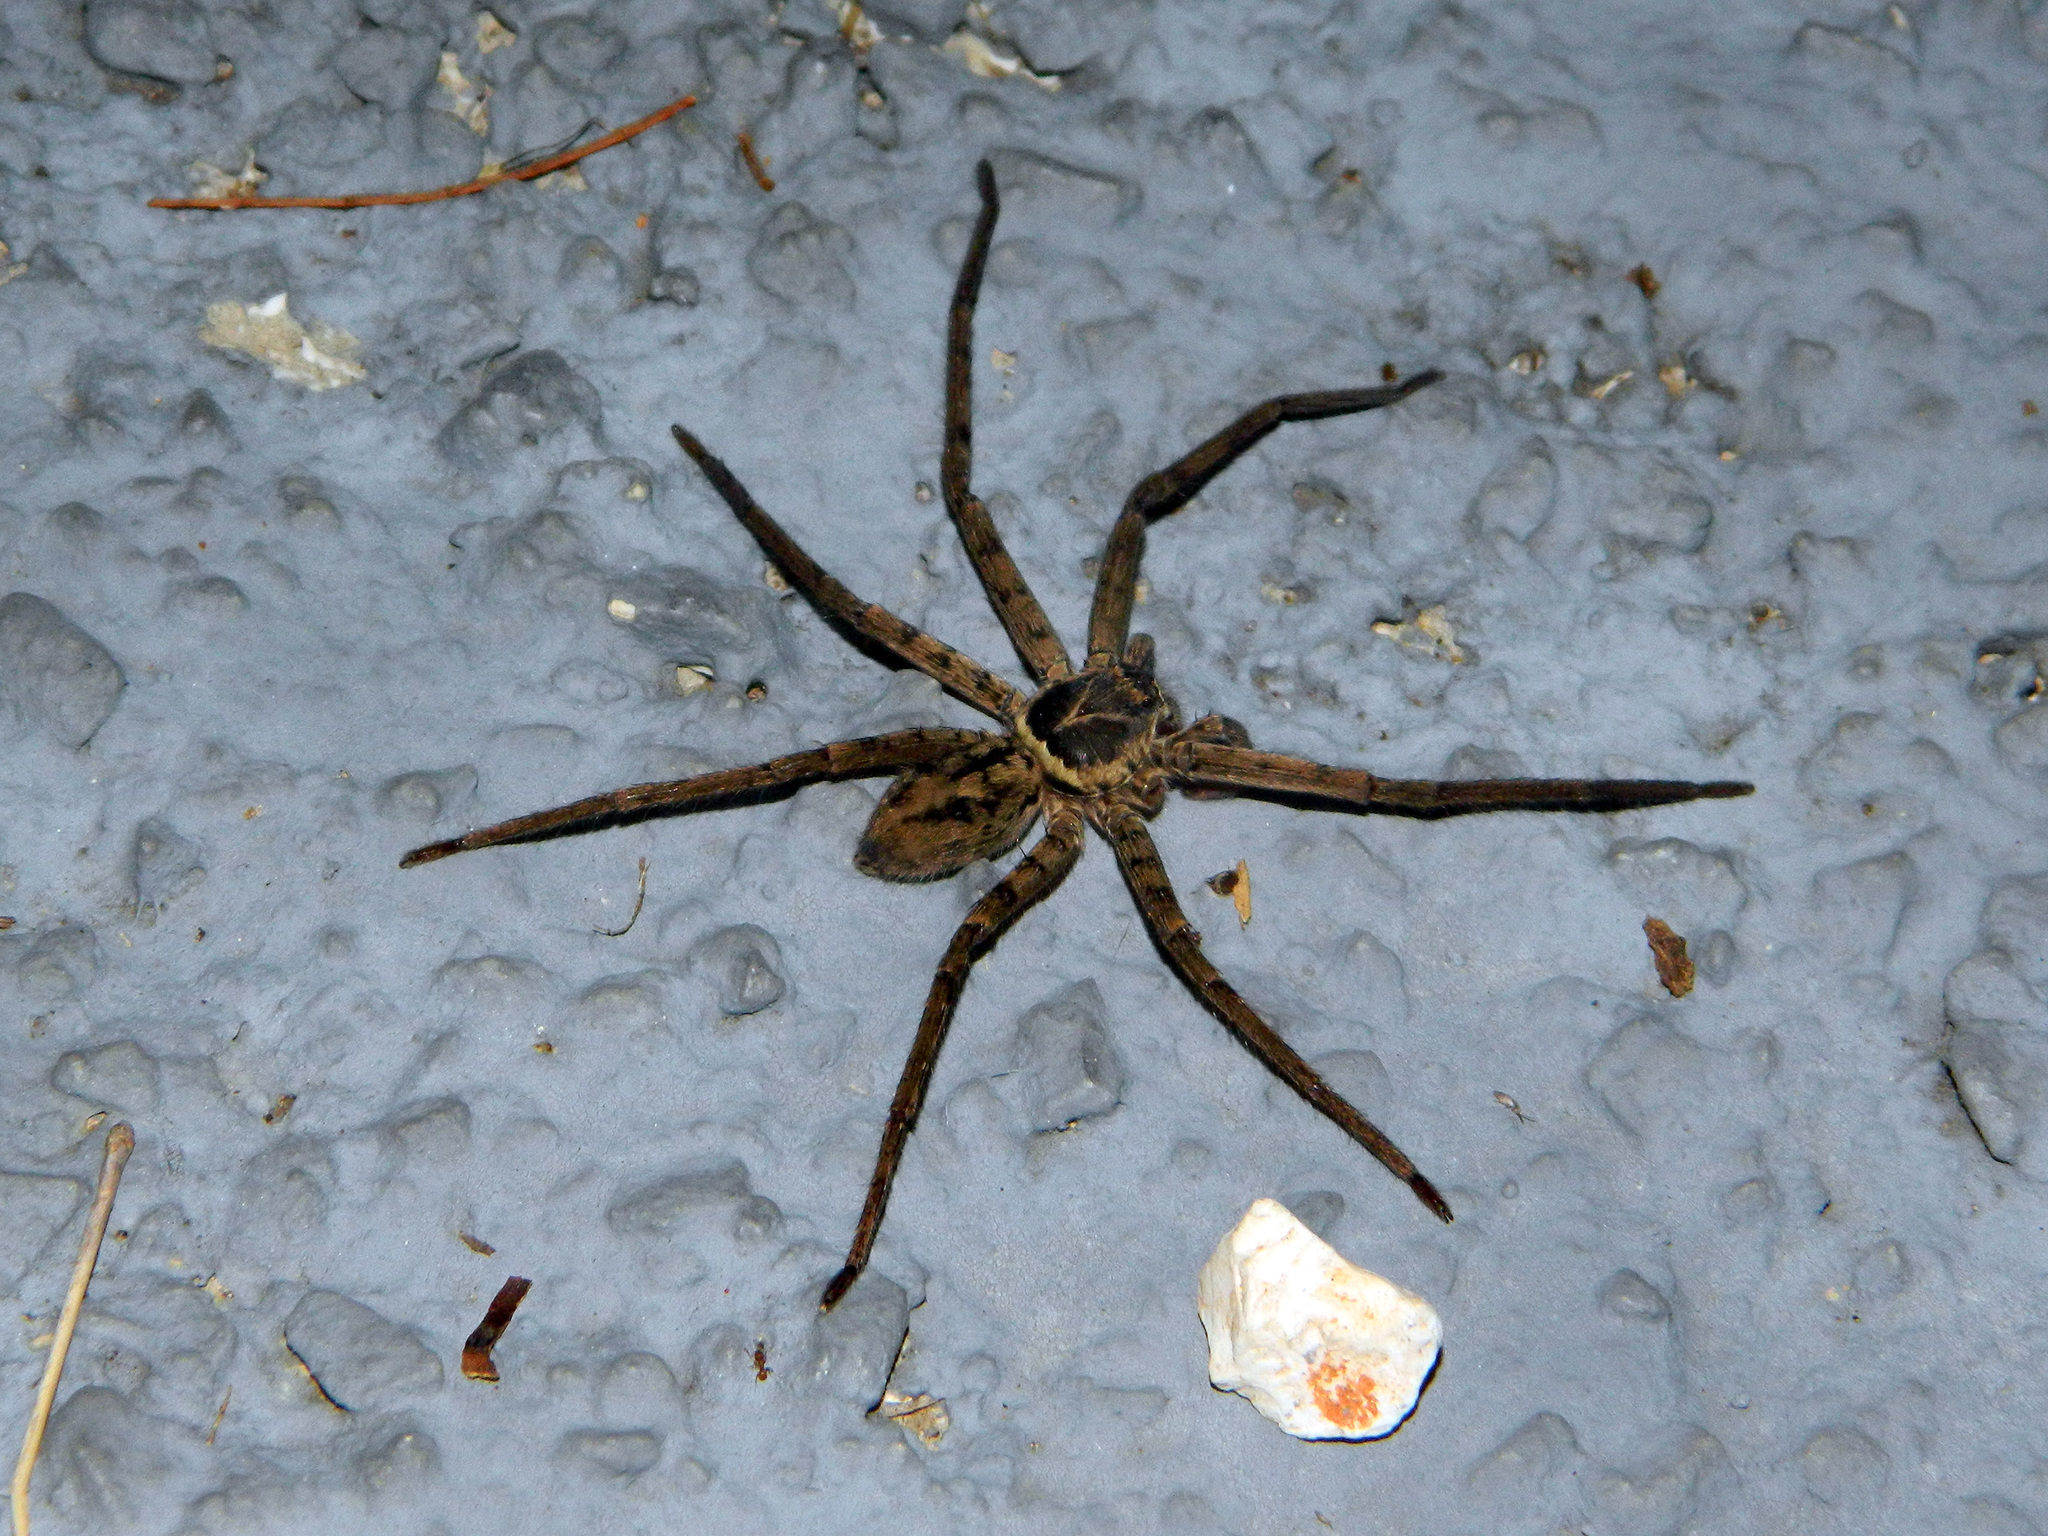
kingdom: Animalia
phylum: Arthropoda
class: Arachnida
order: Araneae
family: Sparassidae
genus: Heteropoda
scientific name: Heteropoda venatoria
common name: Huntsman spider
